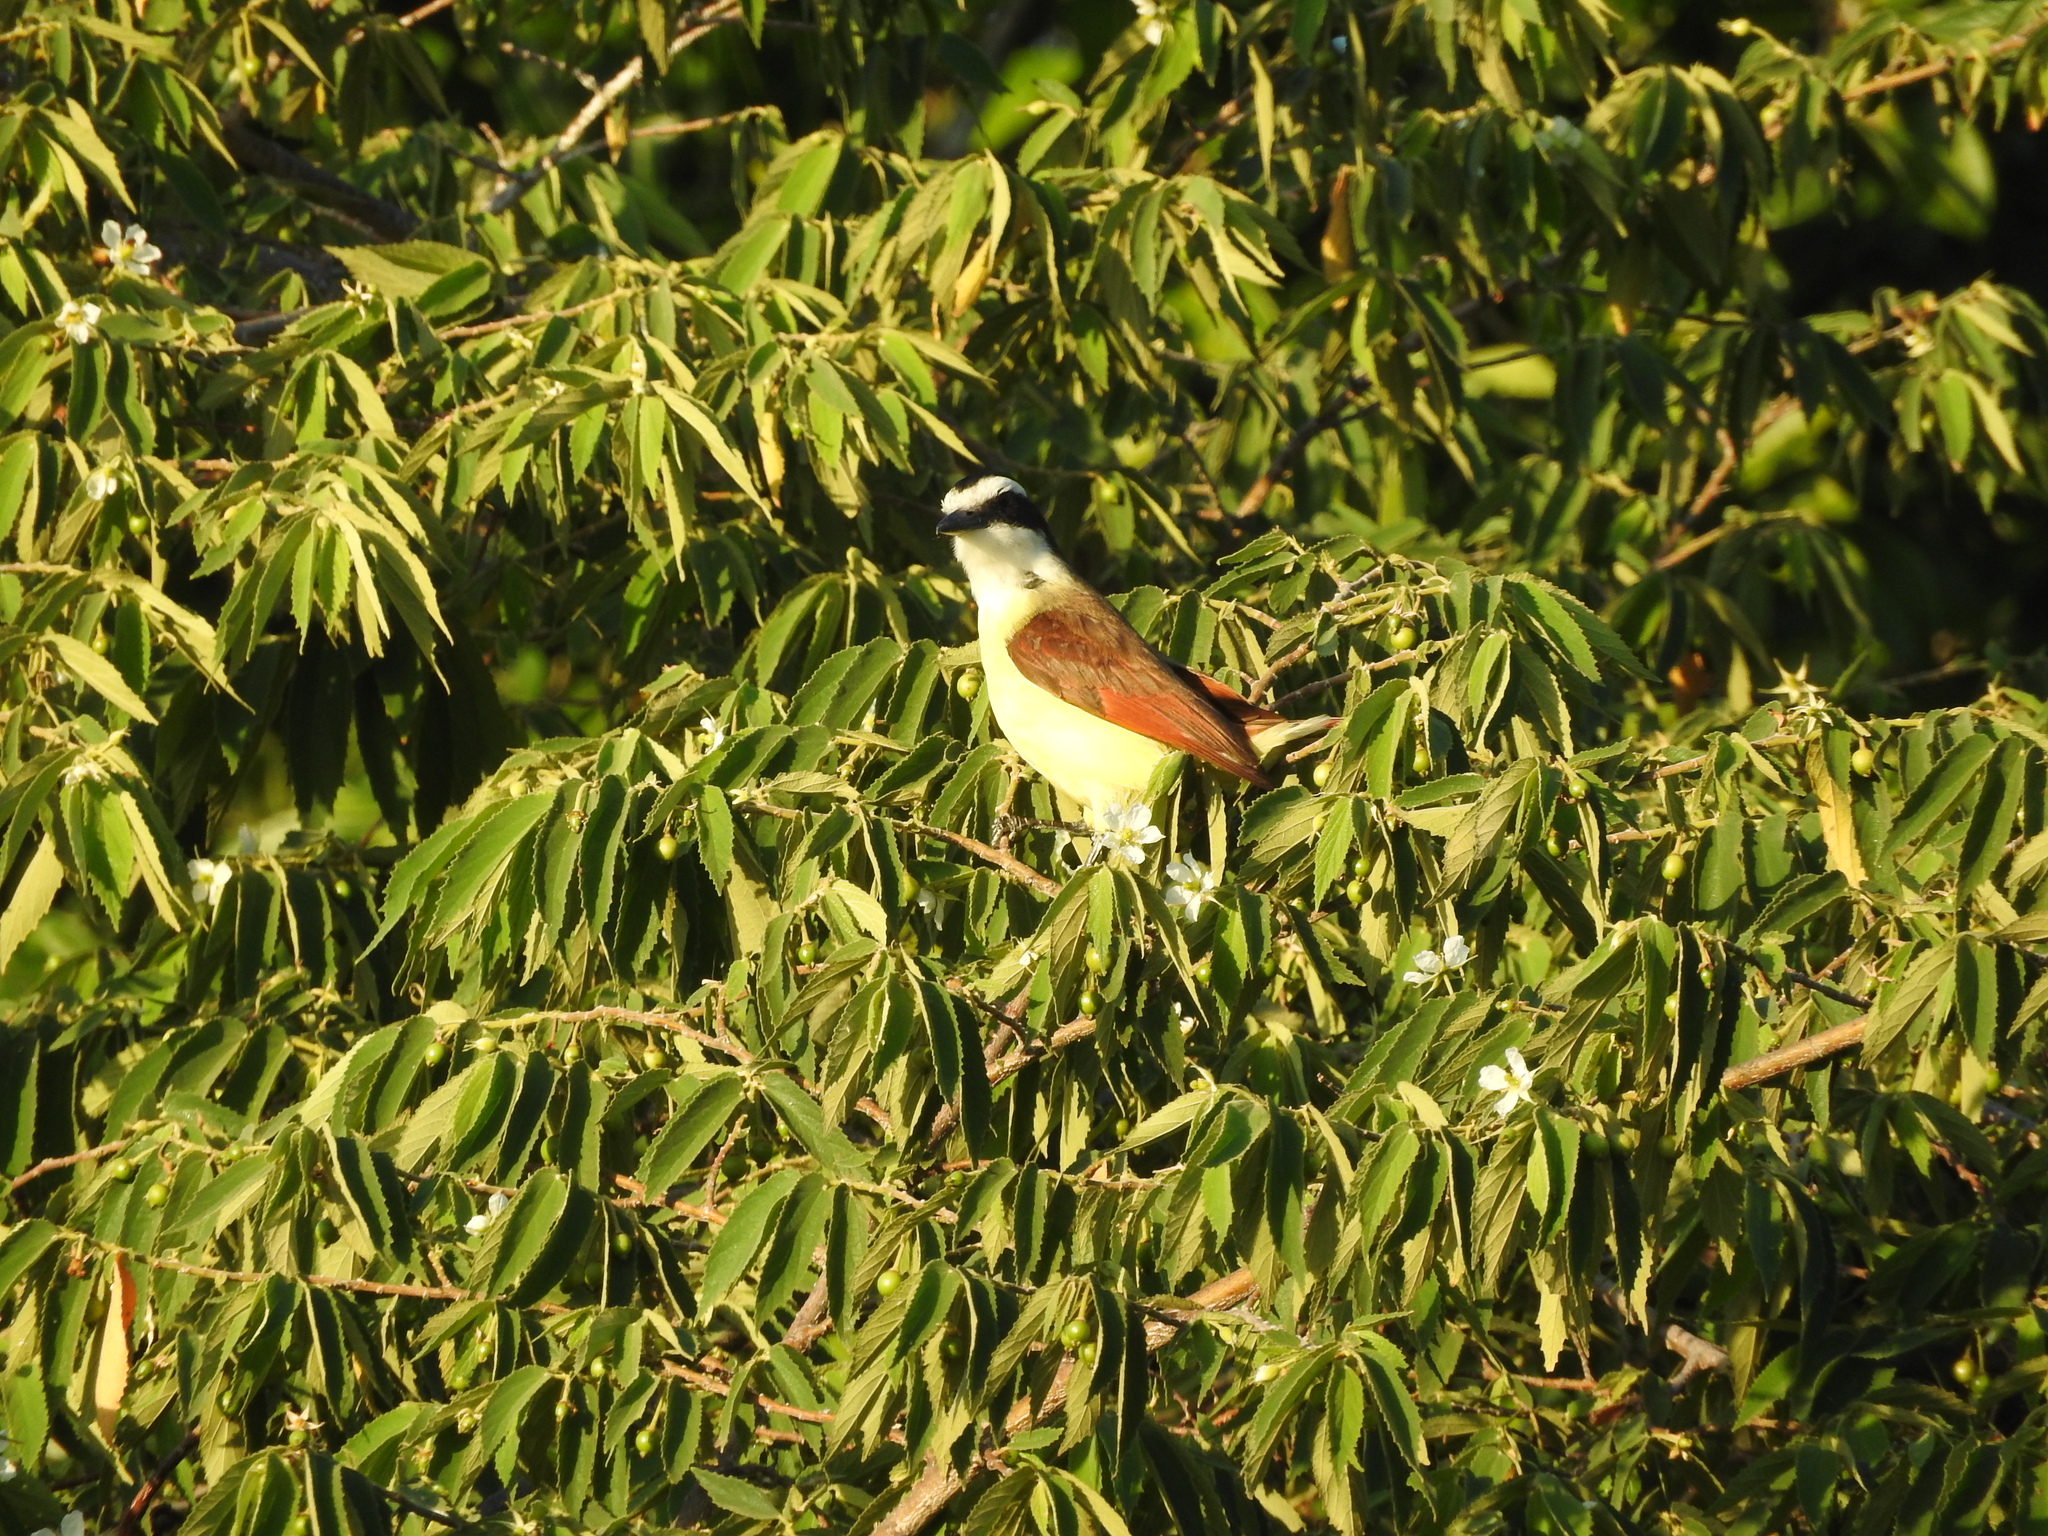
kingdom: Animalia
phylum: Chordata
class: Aves
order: Passeriformes
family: Tyrannidae
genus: Pitangus
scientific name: Pitangus sulphuratus
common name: Great kiskadee
